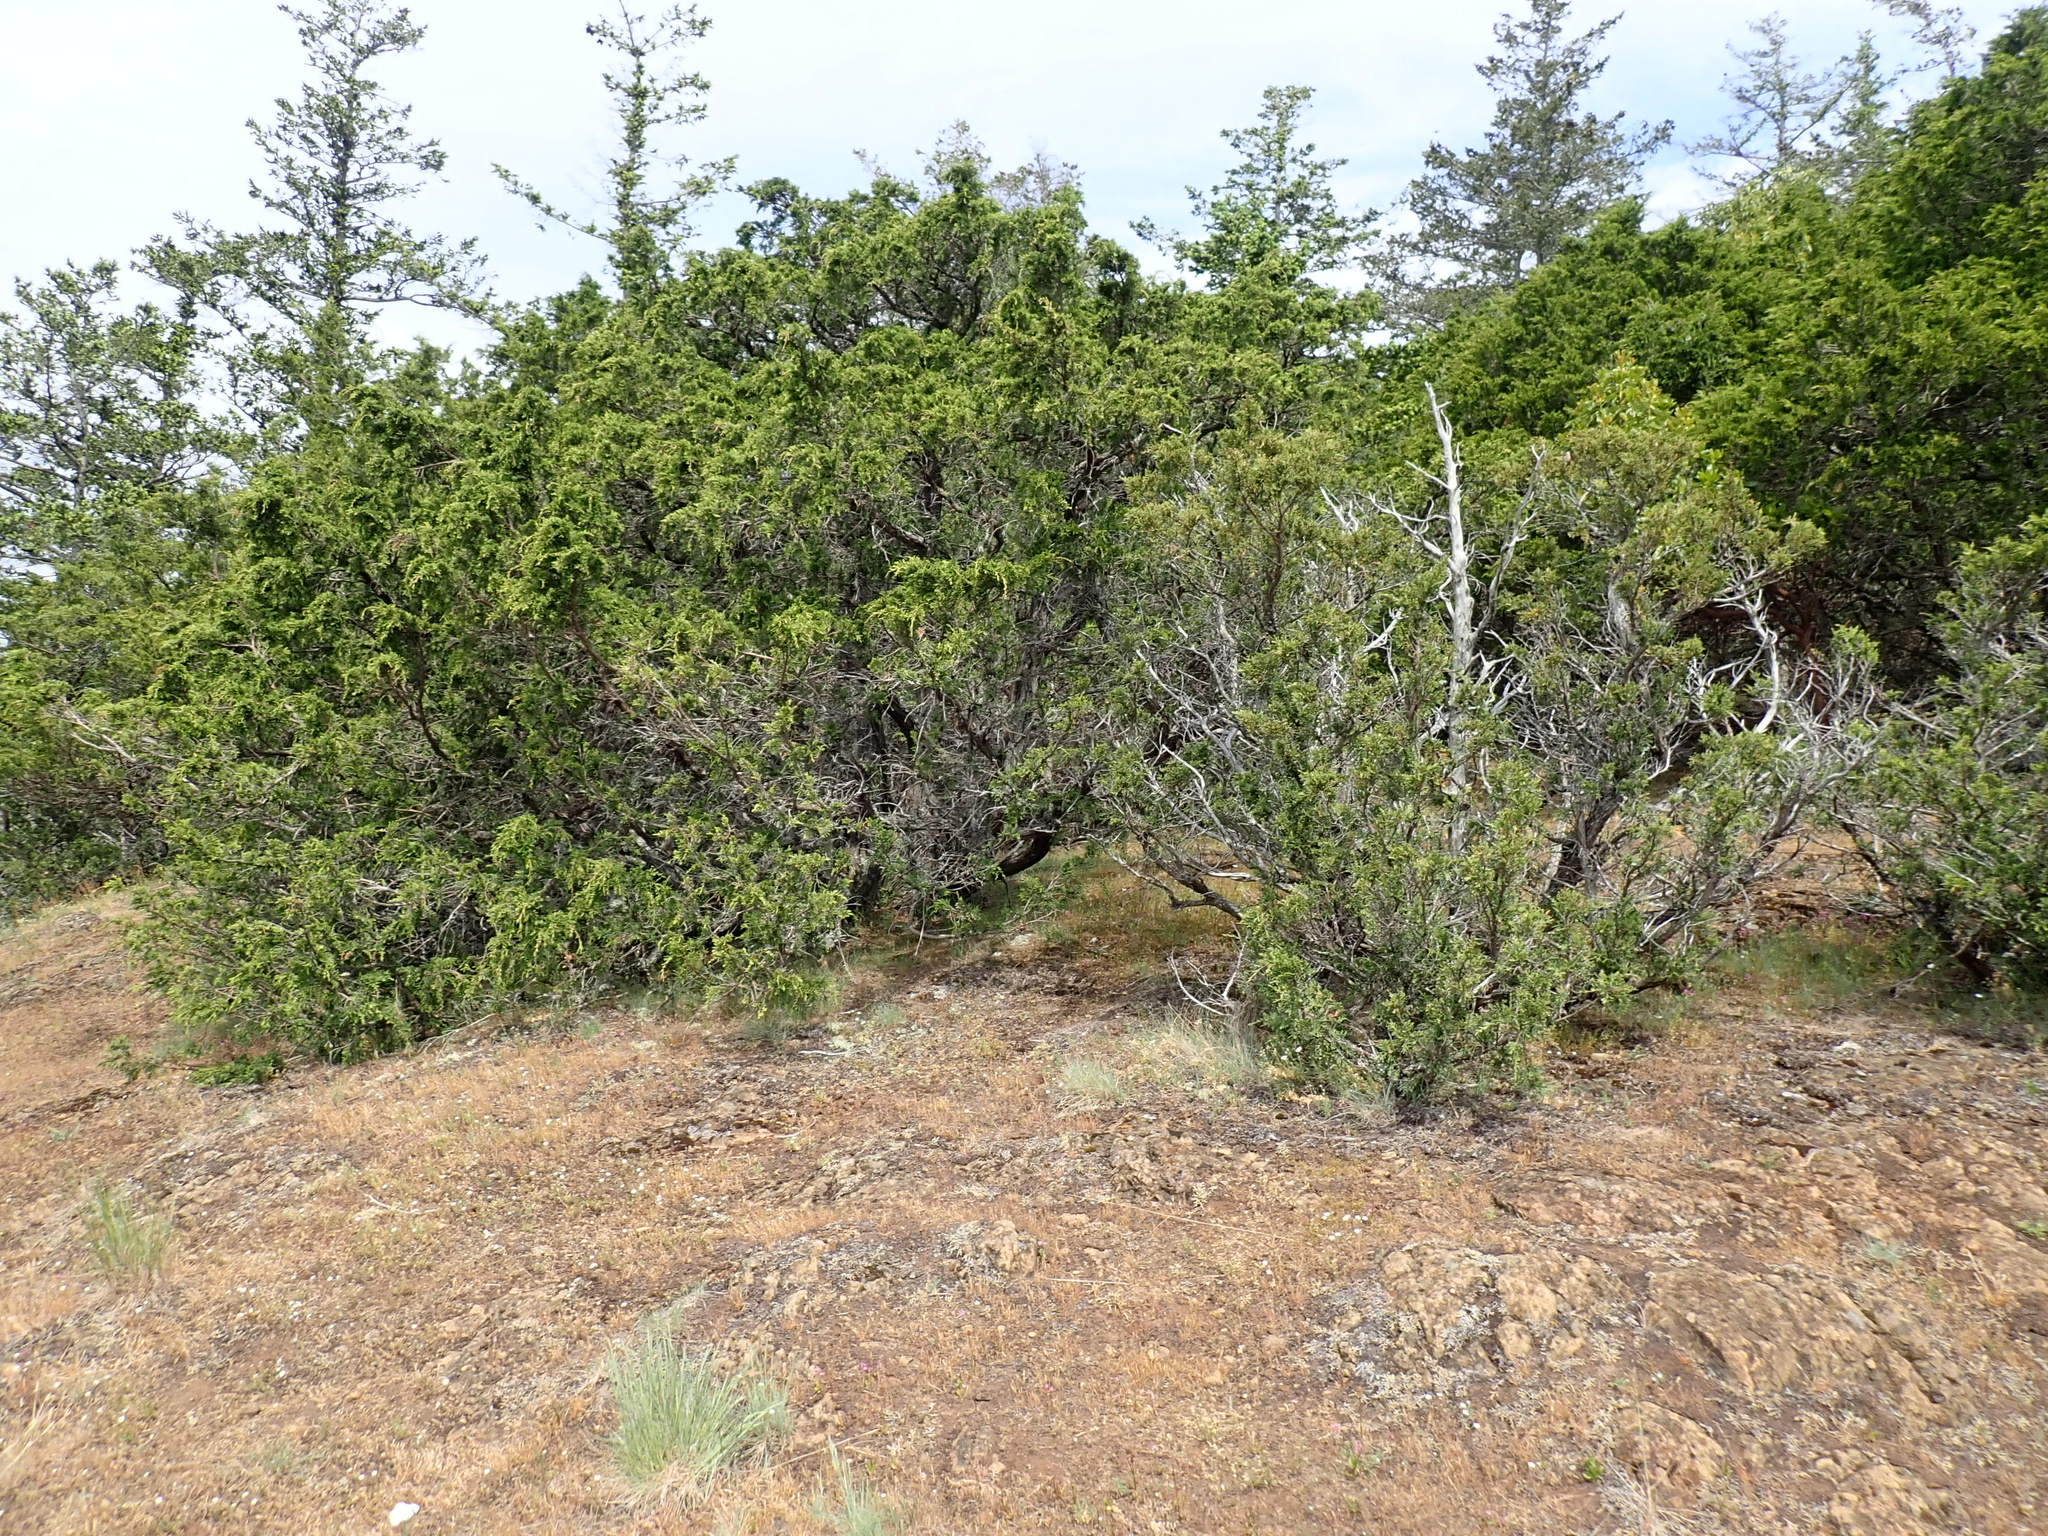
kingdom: Plantae
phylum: Tracheophyta
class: Pinopsida
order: Pinales
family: Cupressaceae
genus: Juniperus
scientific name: Juniperus scopulorum
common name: Rocky mountain juniper
